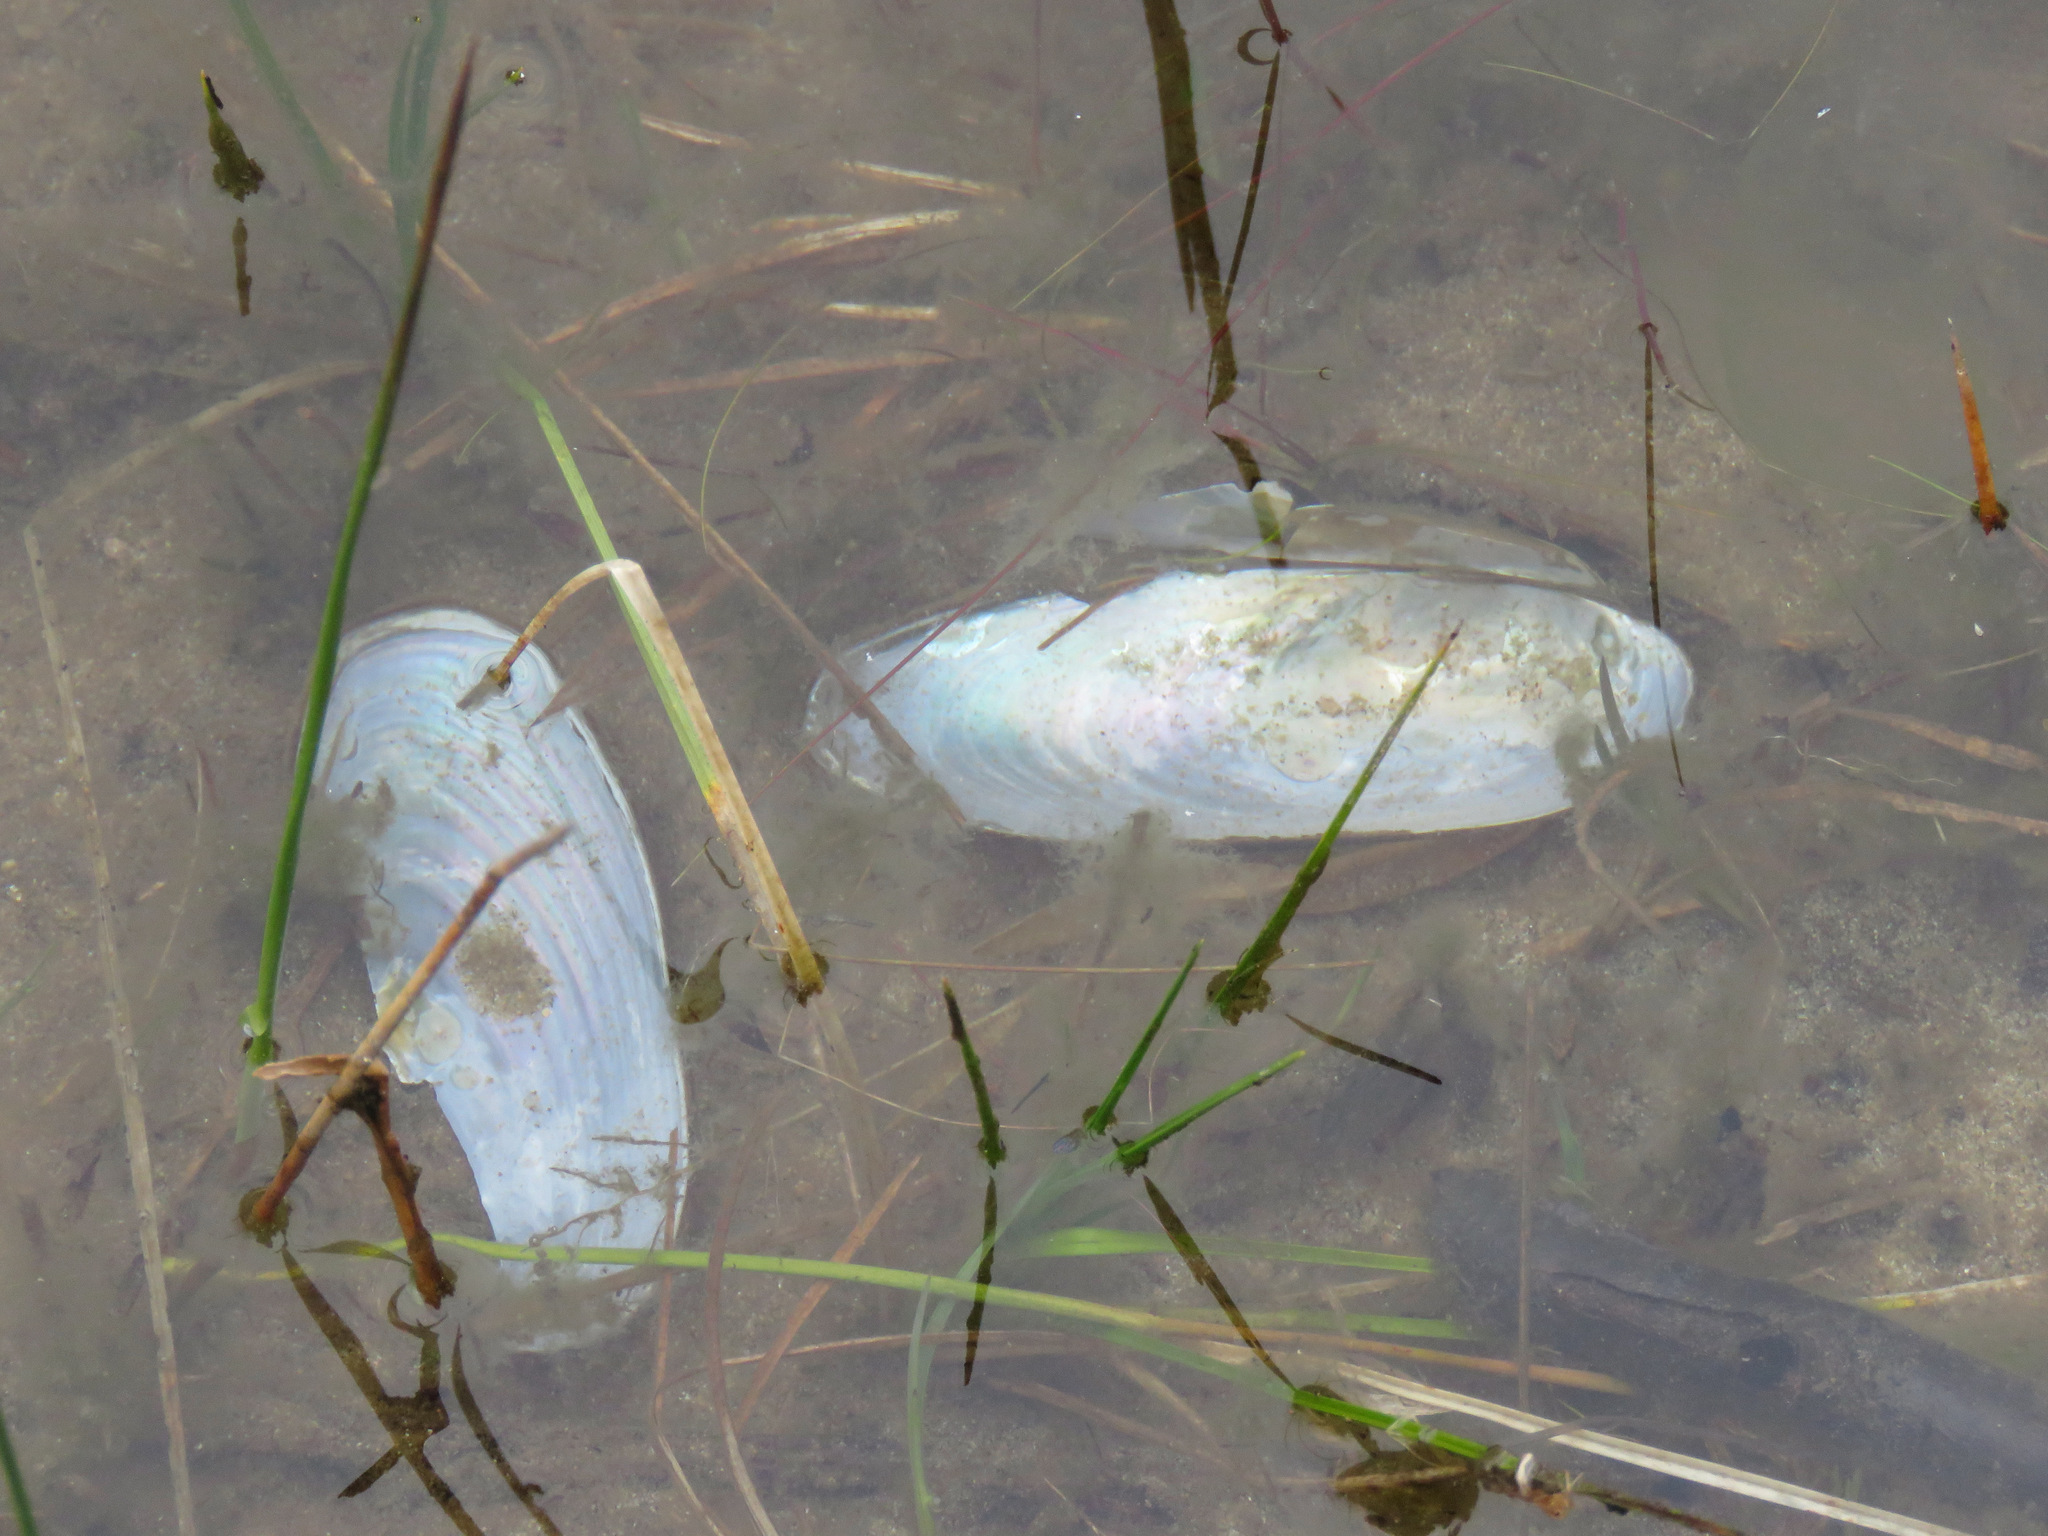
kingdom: Animalia
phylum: Mollusca
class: Bivalvia
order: Unionida
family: Unionidae
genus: Anodonta
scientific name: Anodonta kennerlyi
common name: Western floater
